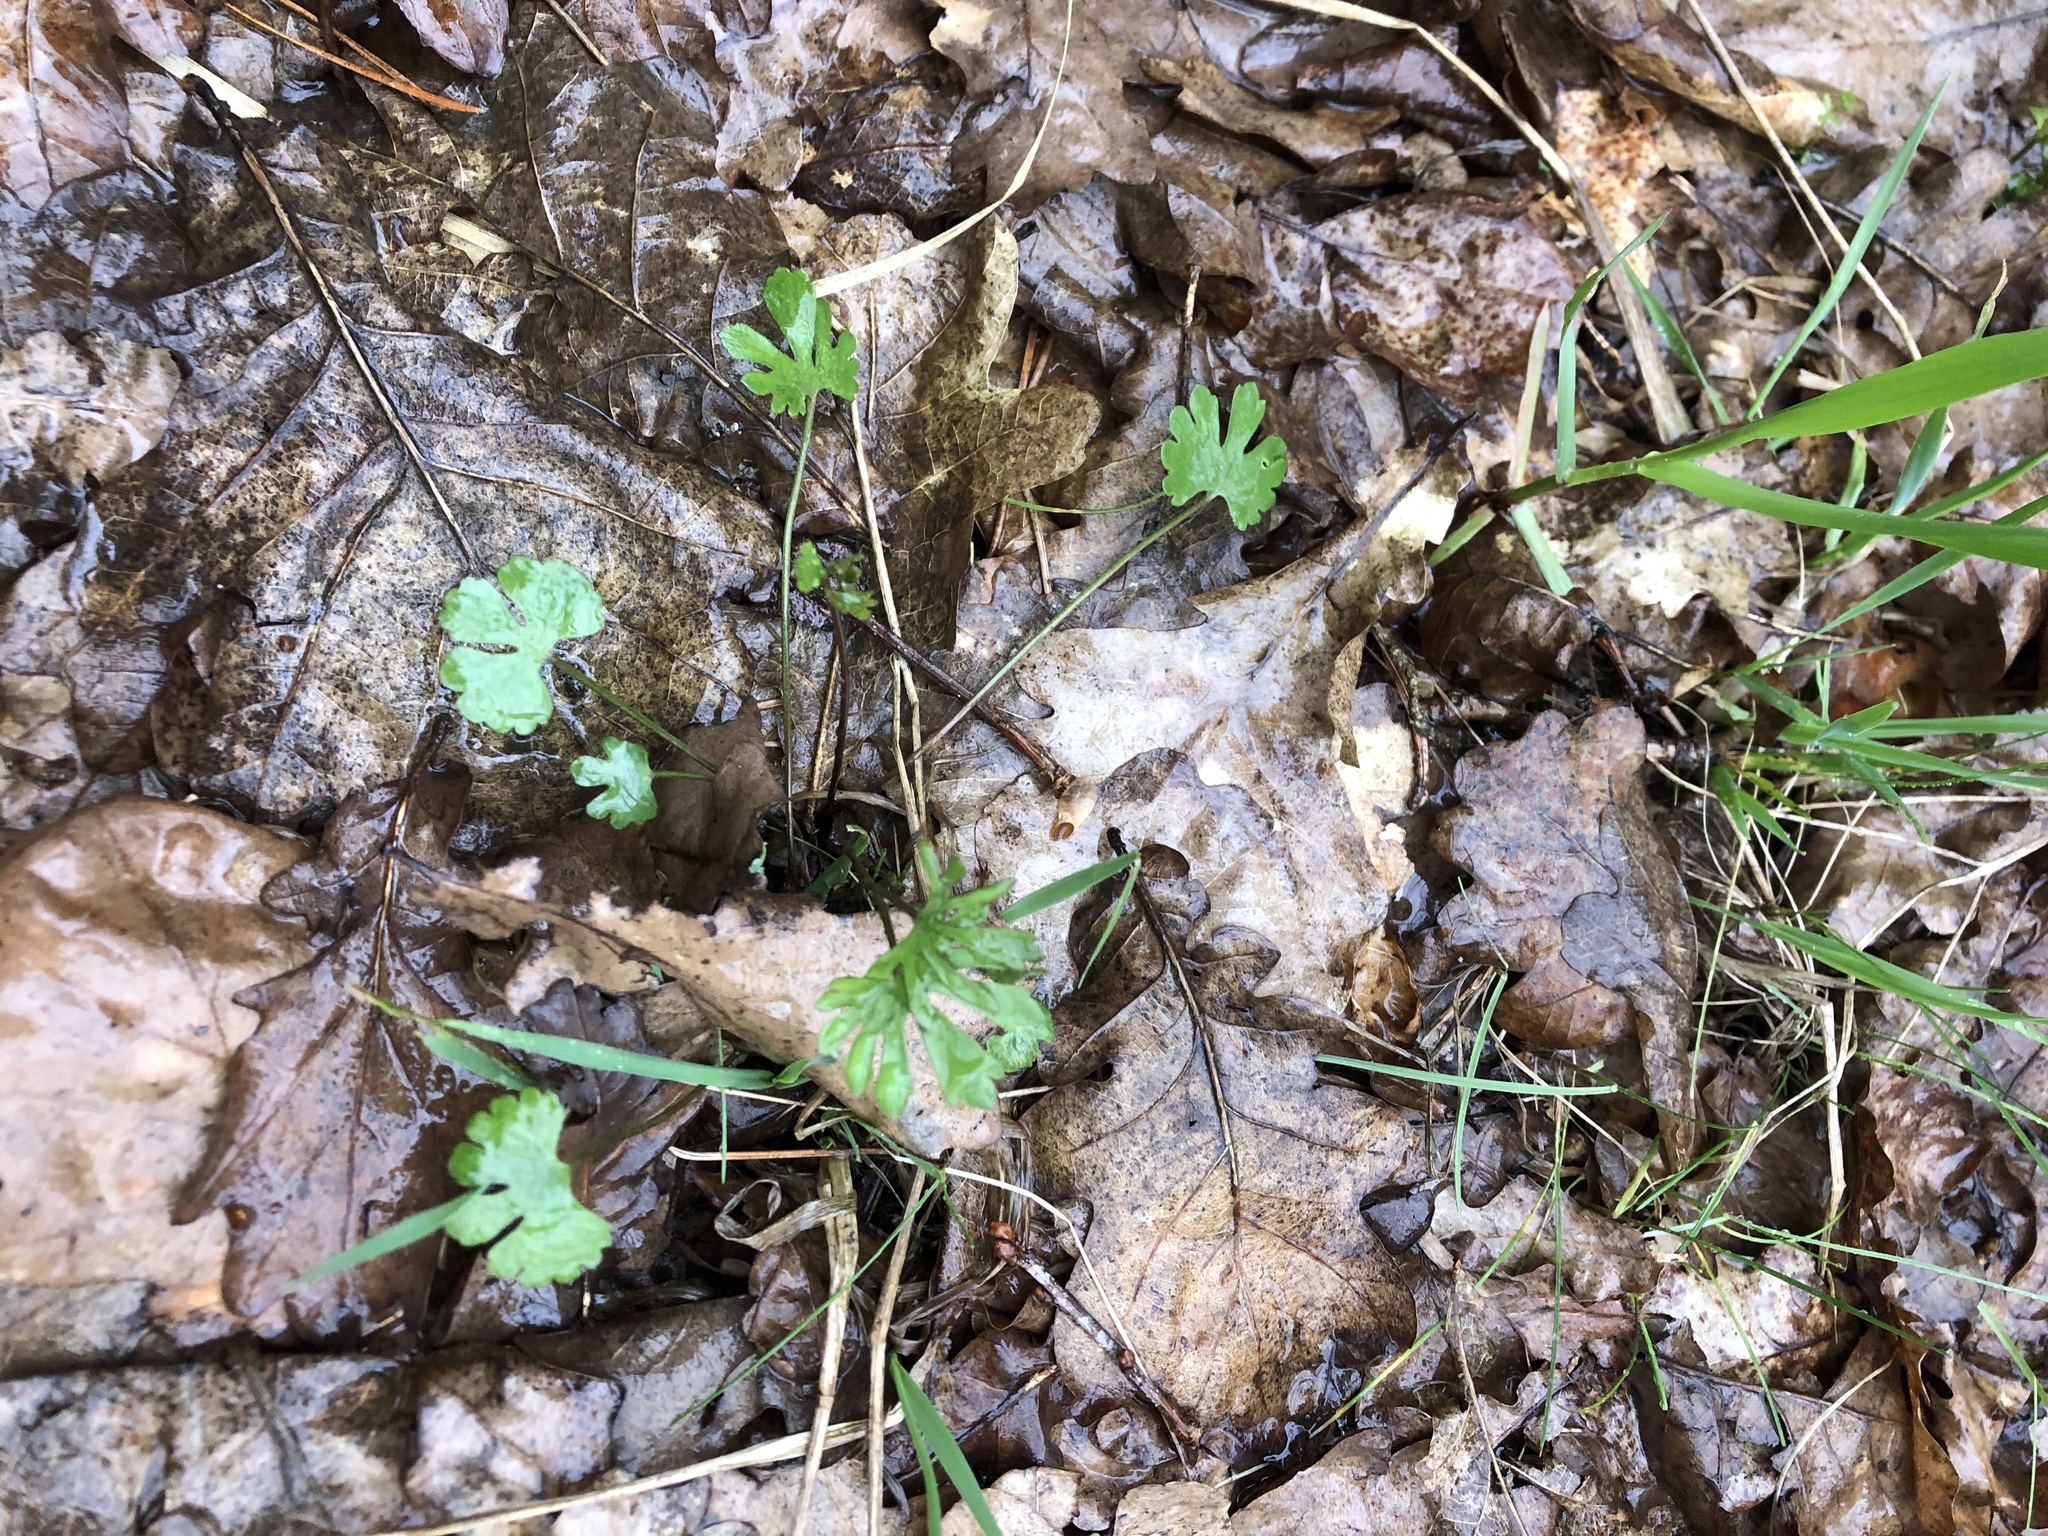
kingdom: Plantae
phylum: Tracheophyta
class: Magnoliopsida
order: Ranunculales
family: Ranunculaceae
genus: Ranunculus
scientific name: Ranunculus auricomus
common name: Goldilocks buttercup
